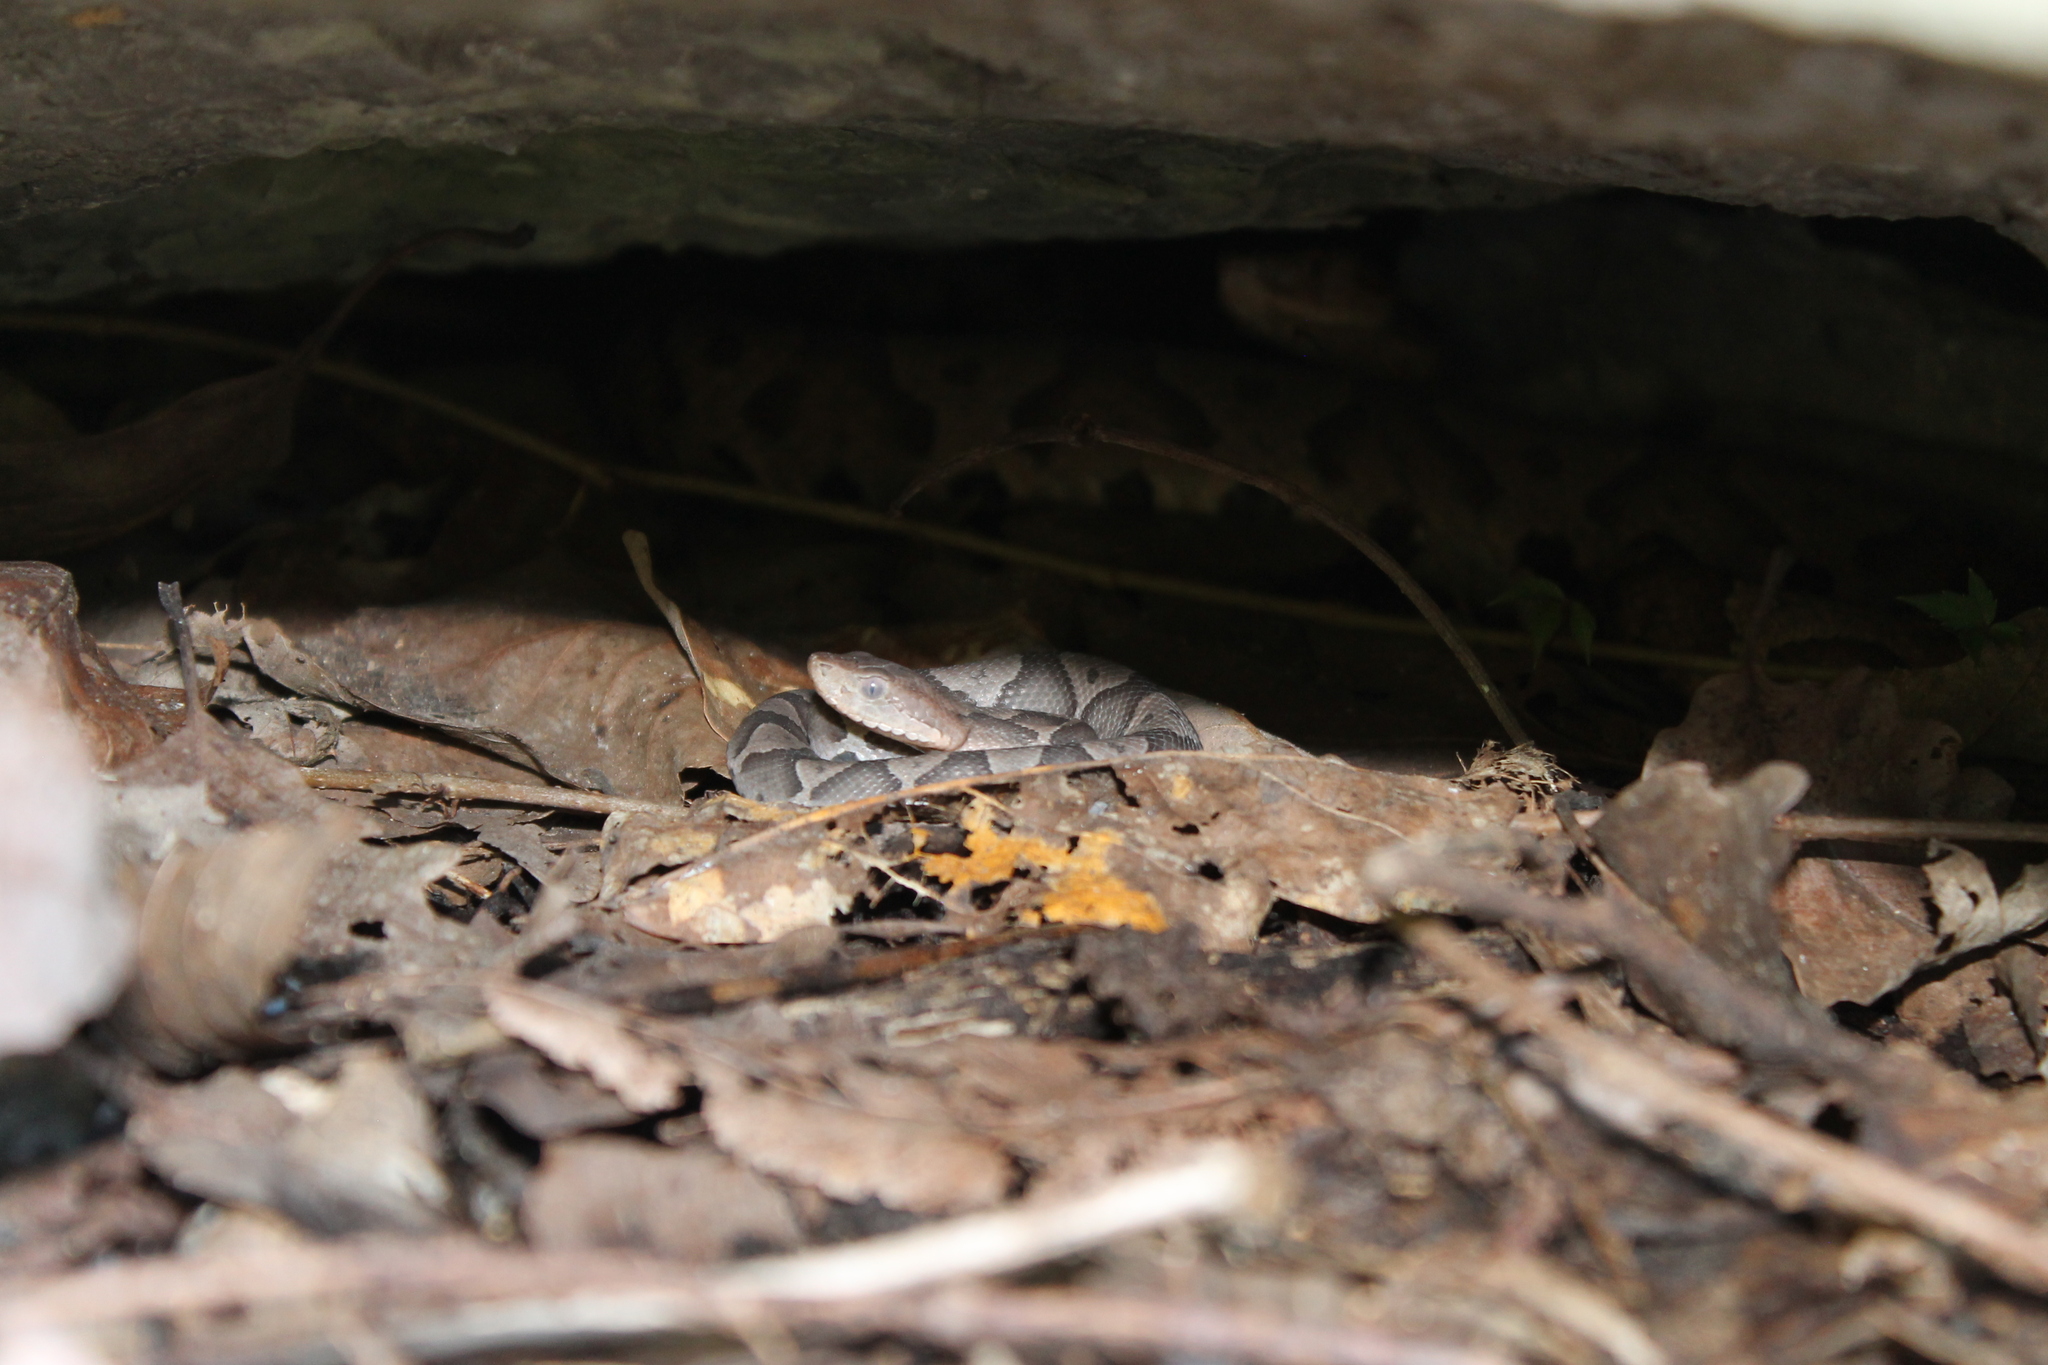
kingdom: Animalia
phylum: Chordata
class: Squamata
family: Viperidae
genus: Agkistrodon
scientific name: Agkistrodon contortrix
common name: Northern copperhead
